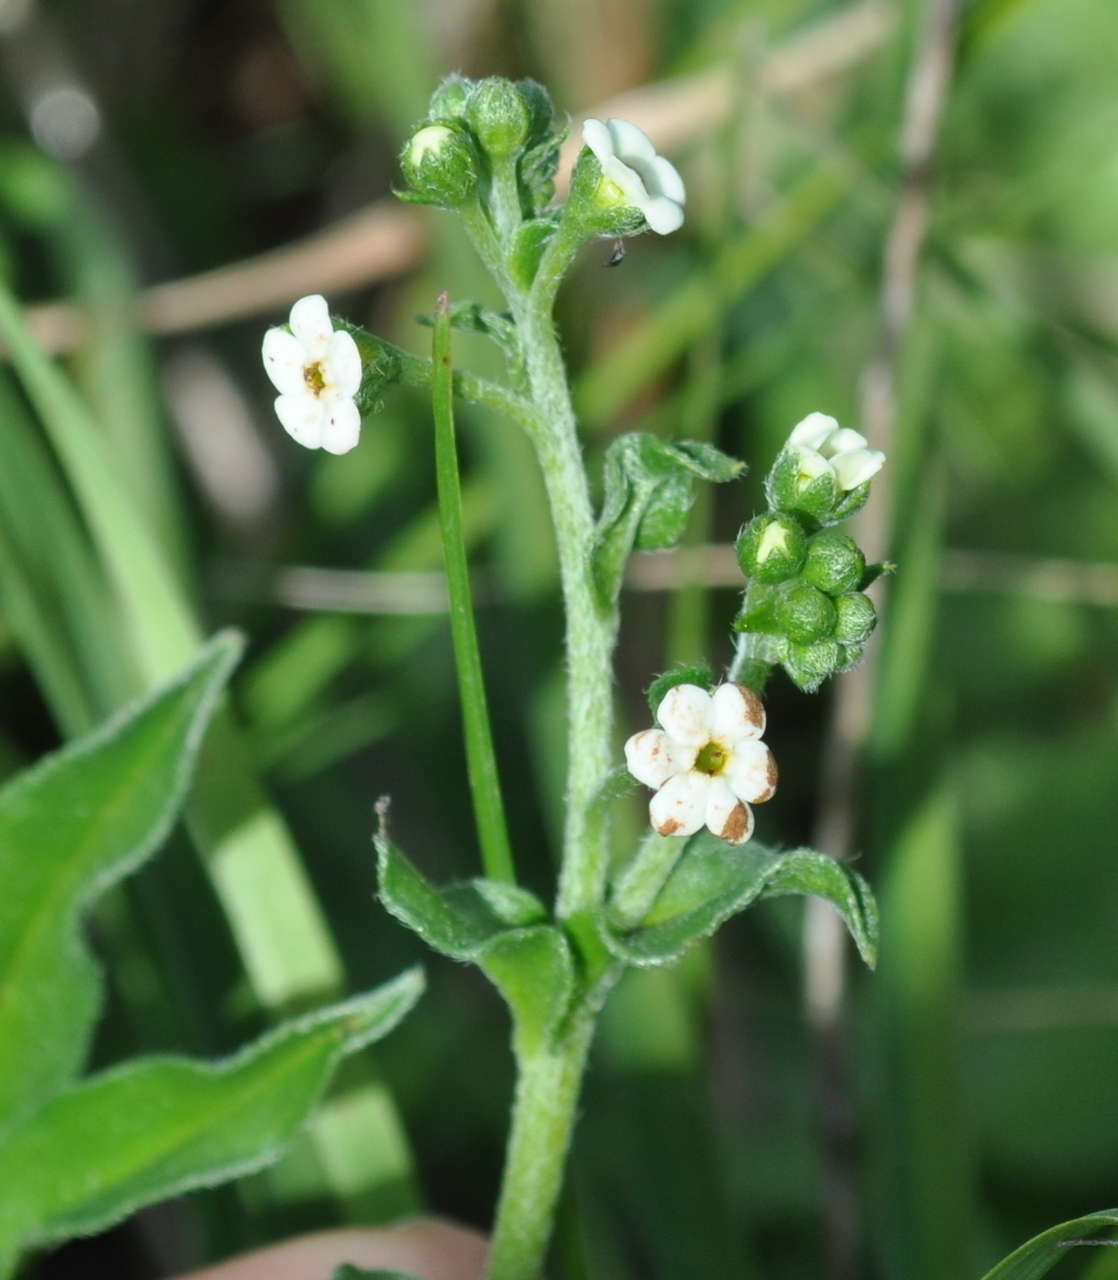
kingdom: Plantae
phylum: Tracheophyta
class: Magnoliopsida
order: Boraginales
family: Boraginaceae
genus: Hackelia
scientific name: Hackelia suaveolens
